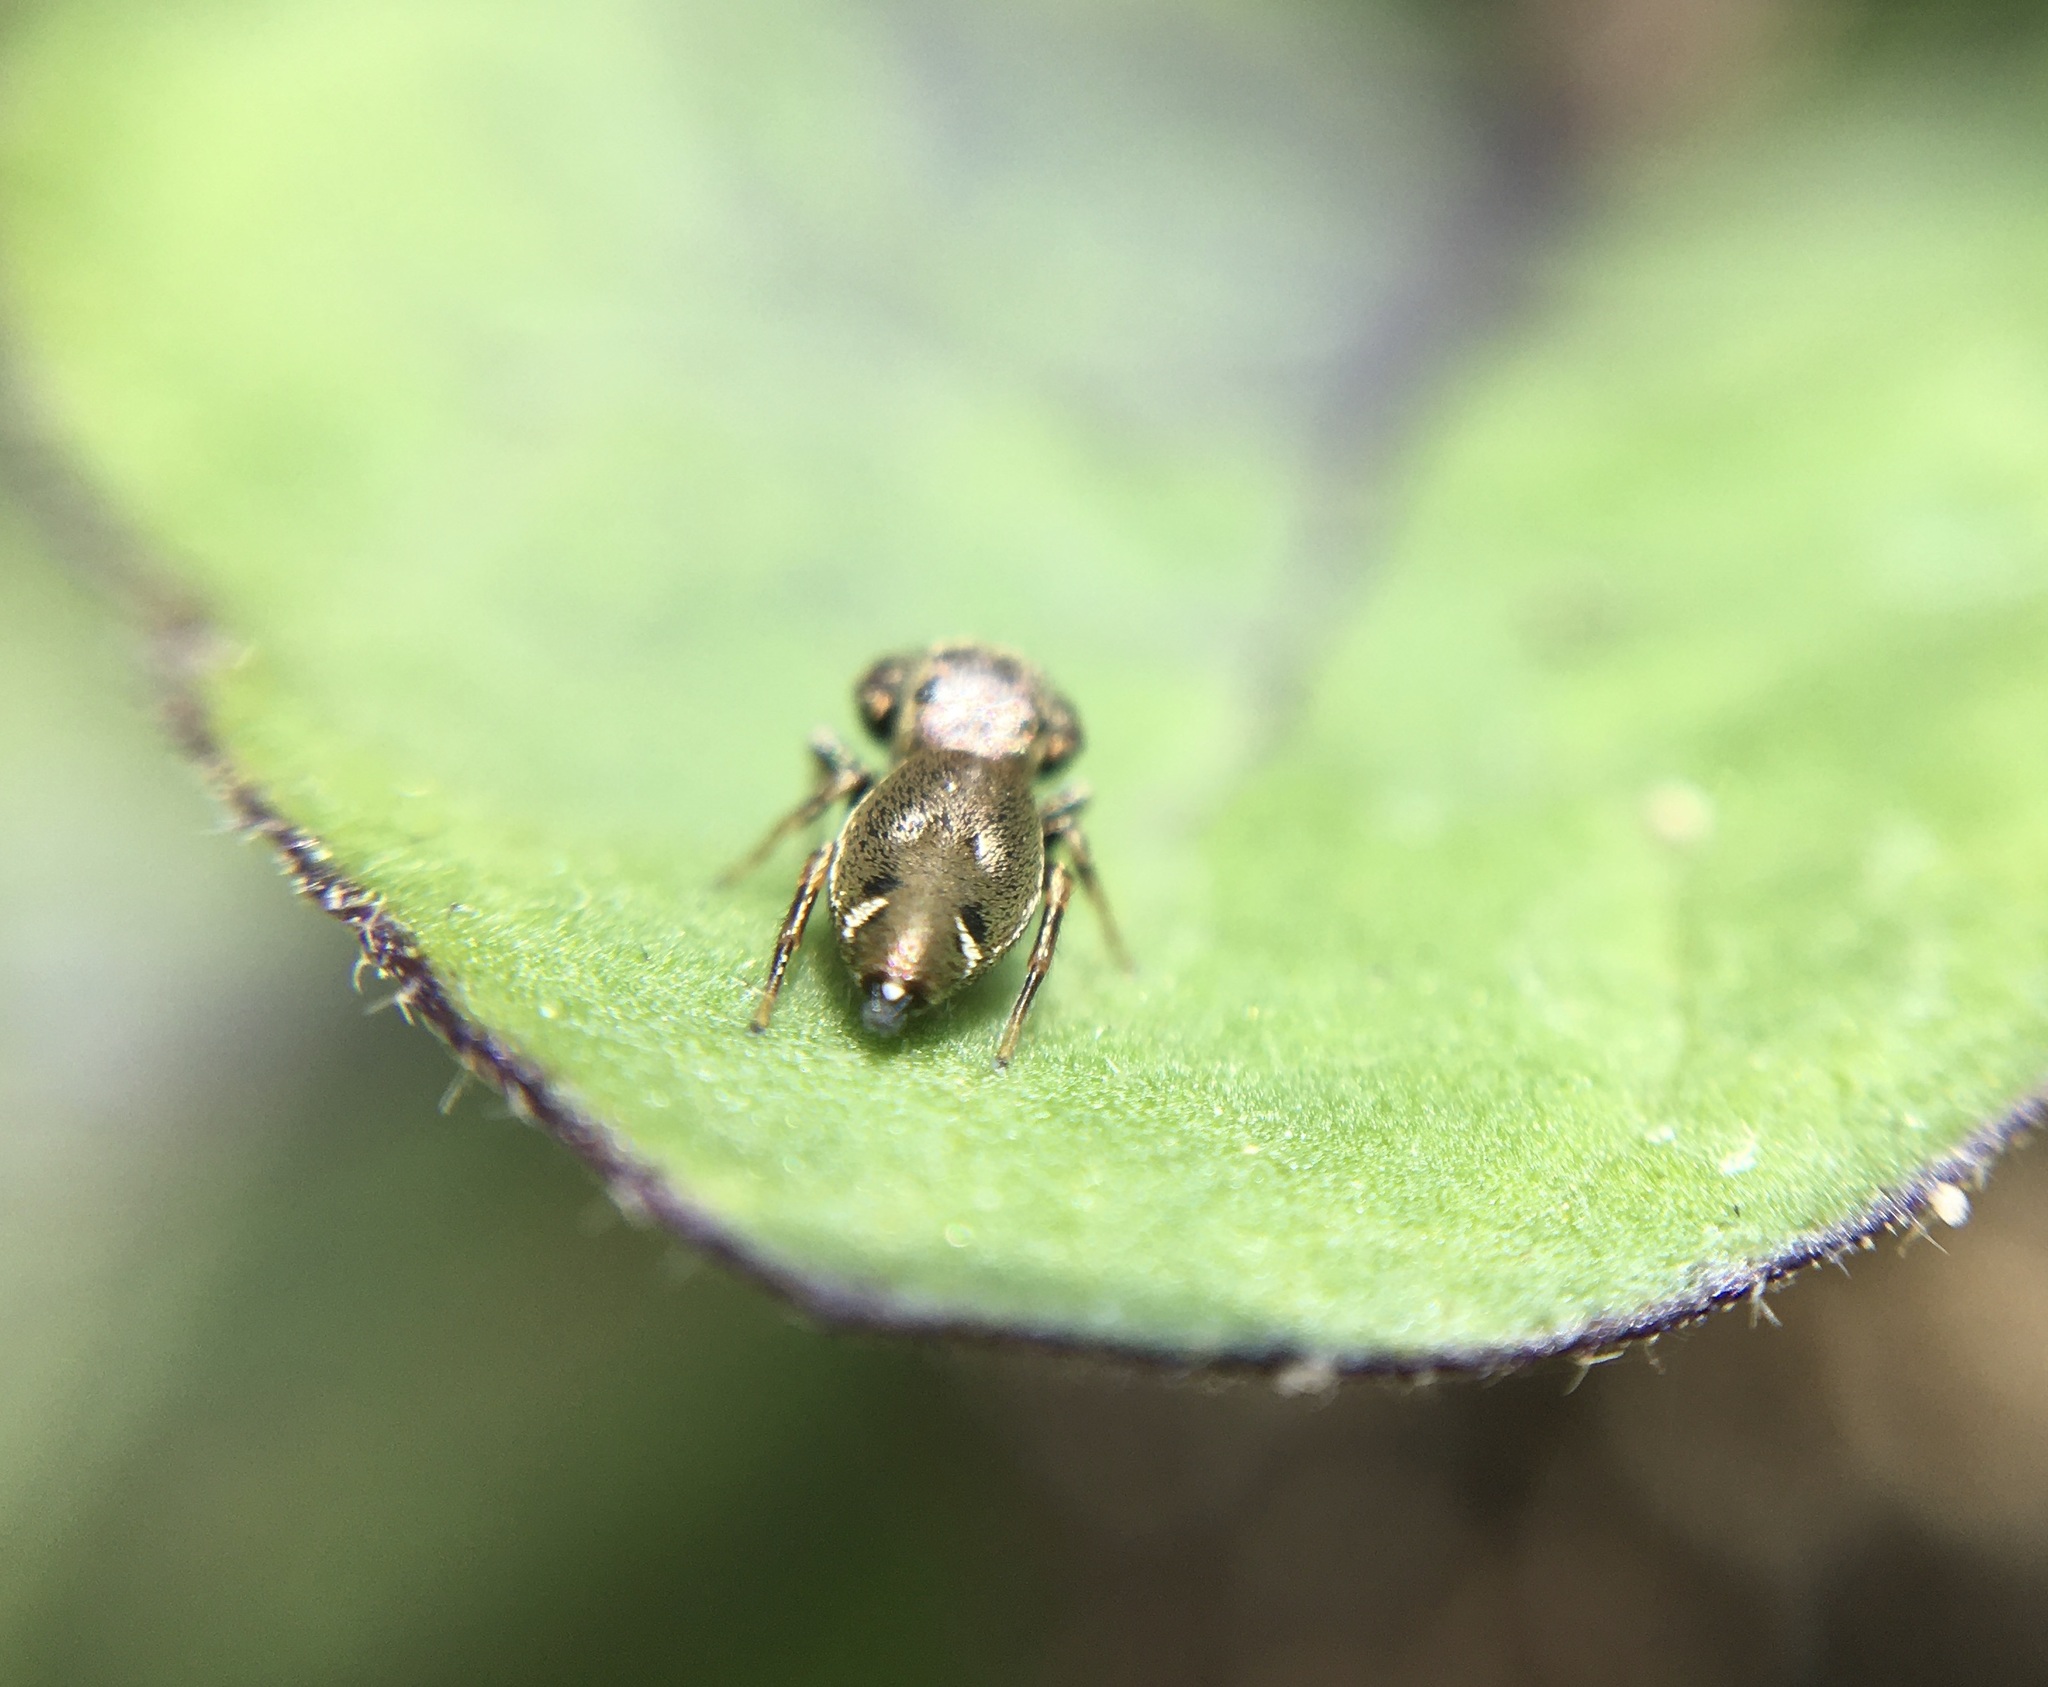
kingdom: Animalia
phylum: Arthropoda
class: Arachnida
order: Araneae
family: Salticidae
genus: Sassacus
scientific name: Sassacus vitis
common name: Jumping spiders
